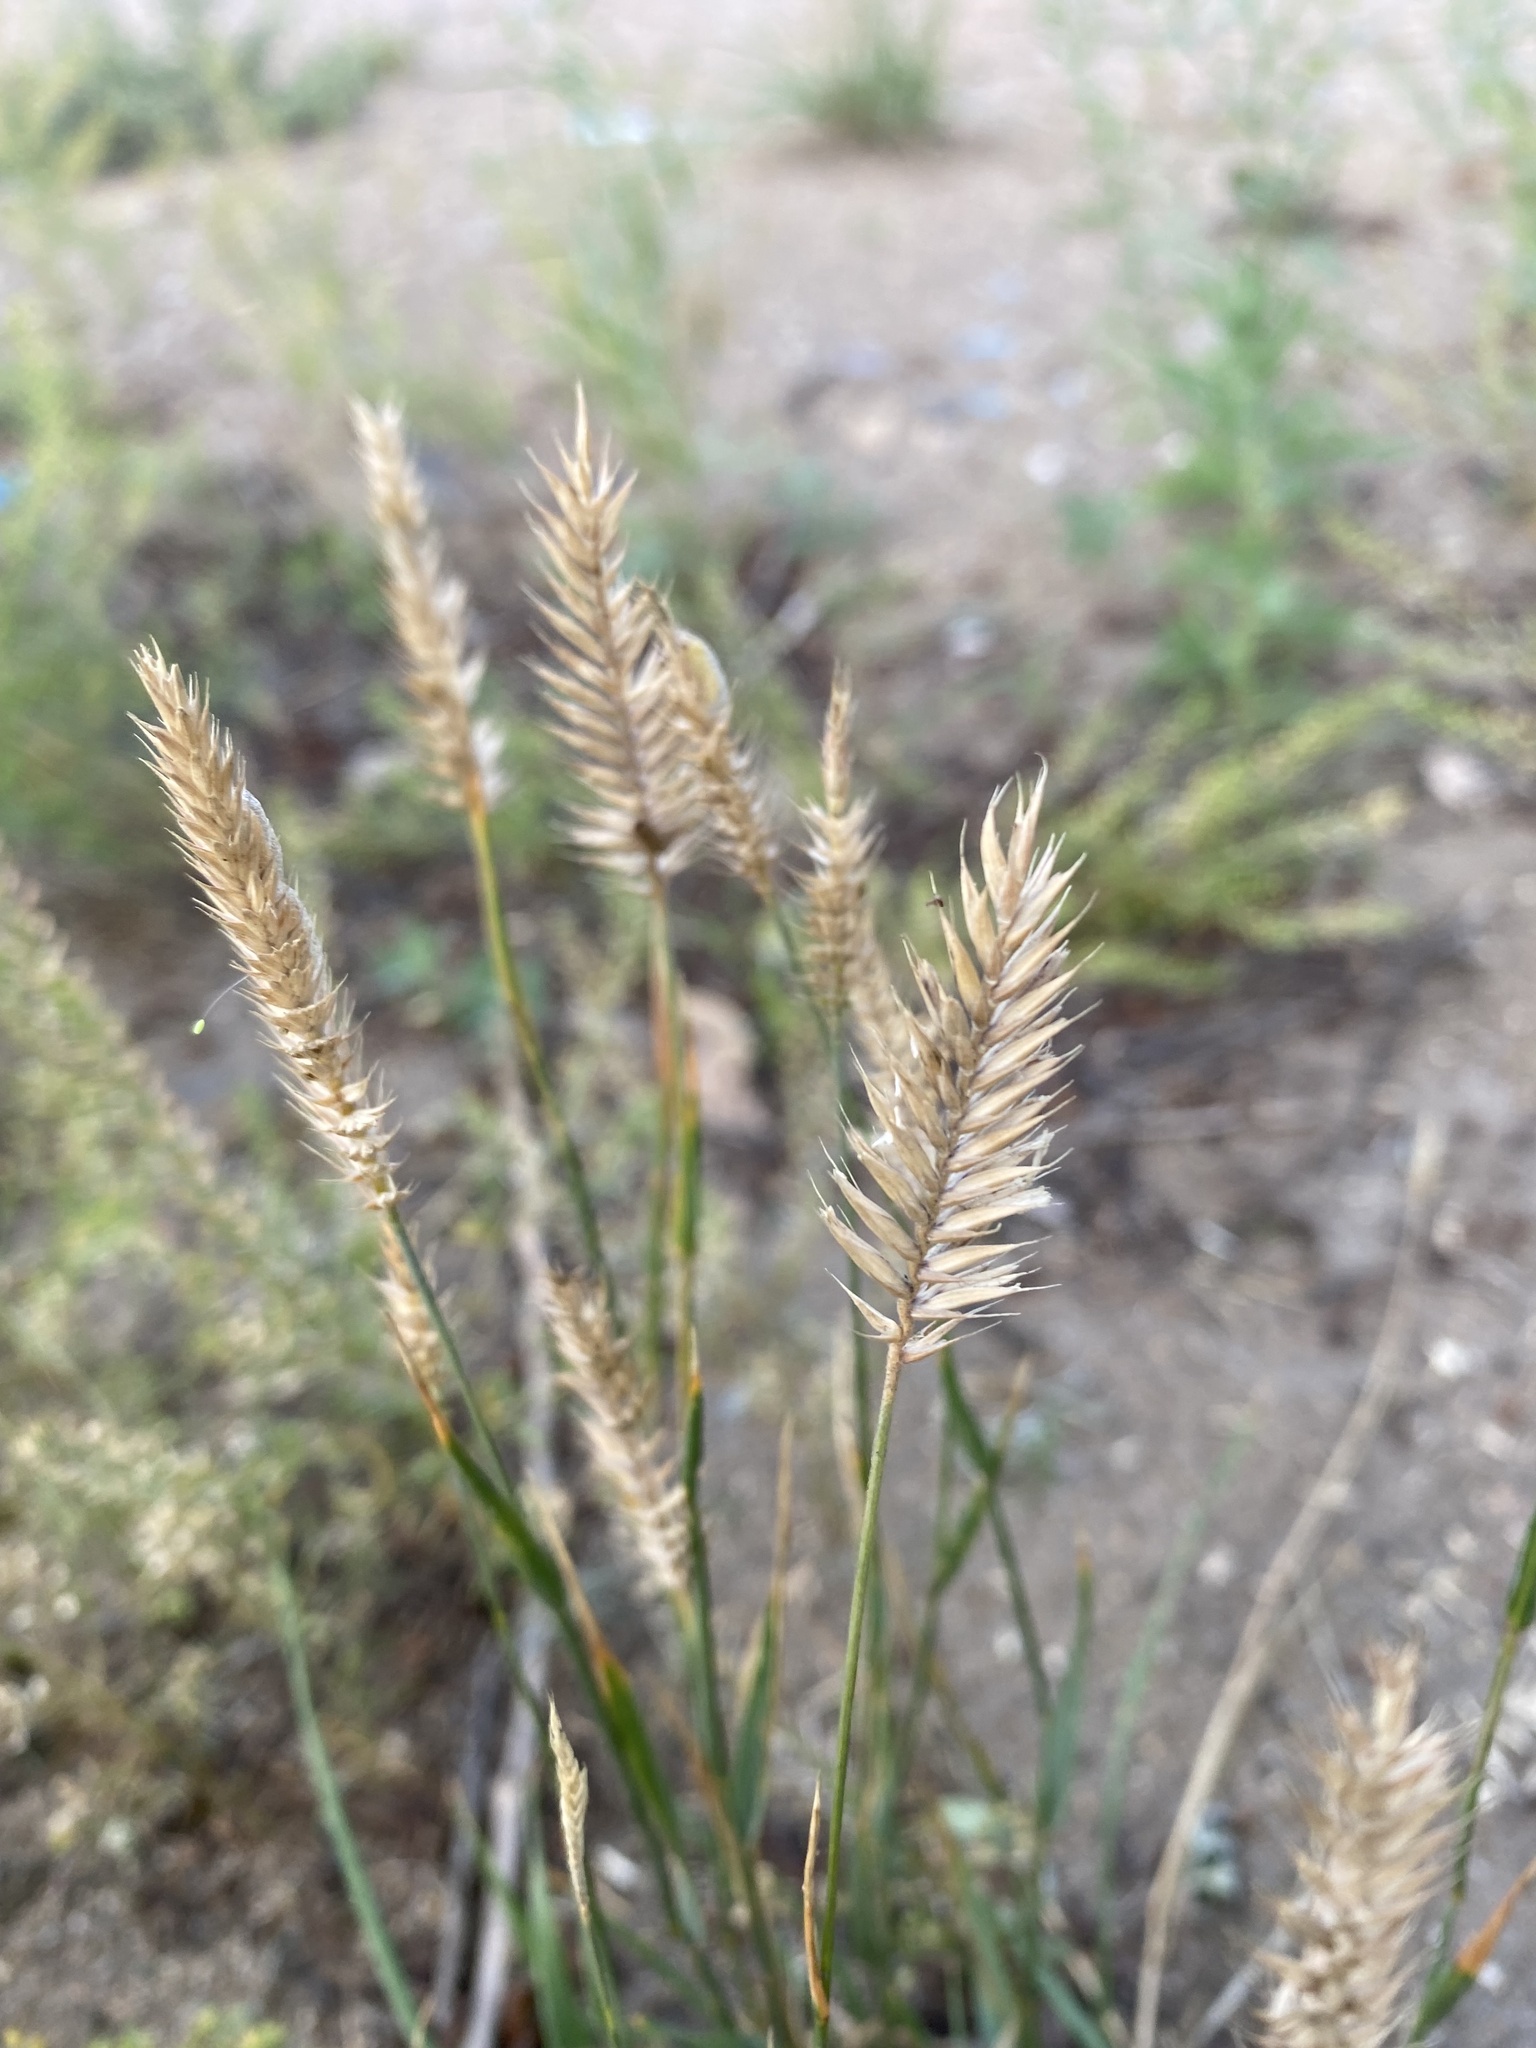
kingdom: Plantae
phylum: Tracheophyta
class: Liliopsida
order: Poales
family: Poaceae
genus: Agropyron
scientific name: Agropyron cristatum
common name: Crested wheatgrass
